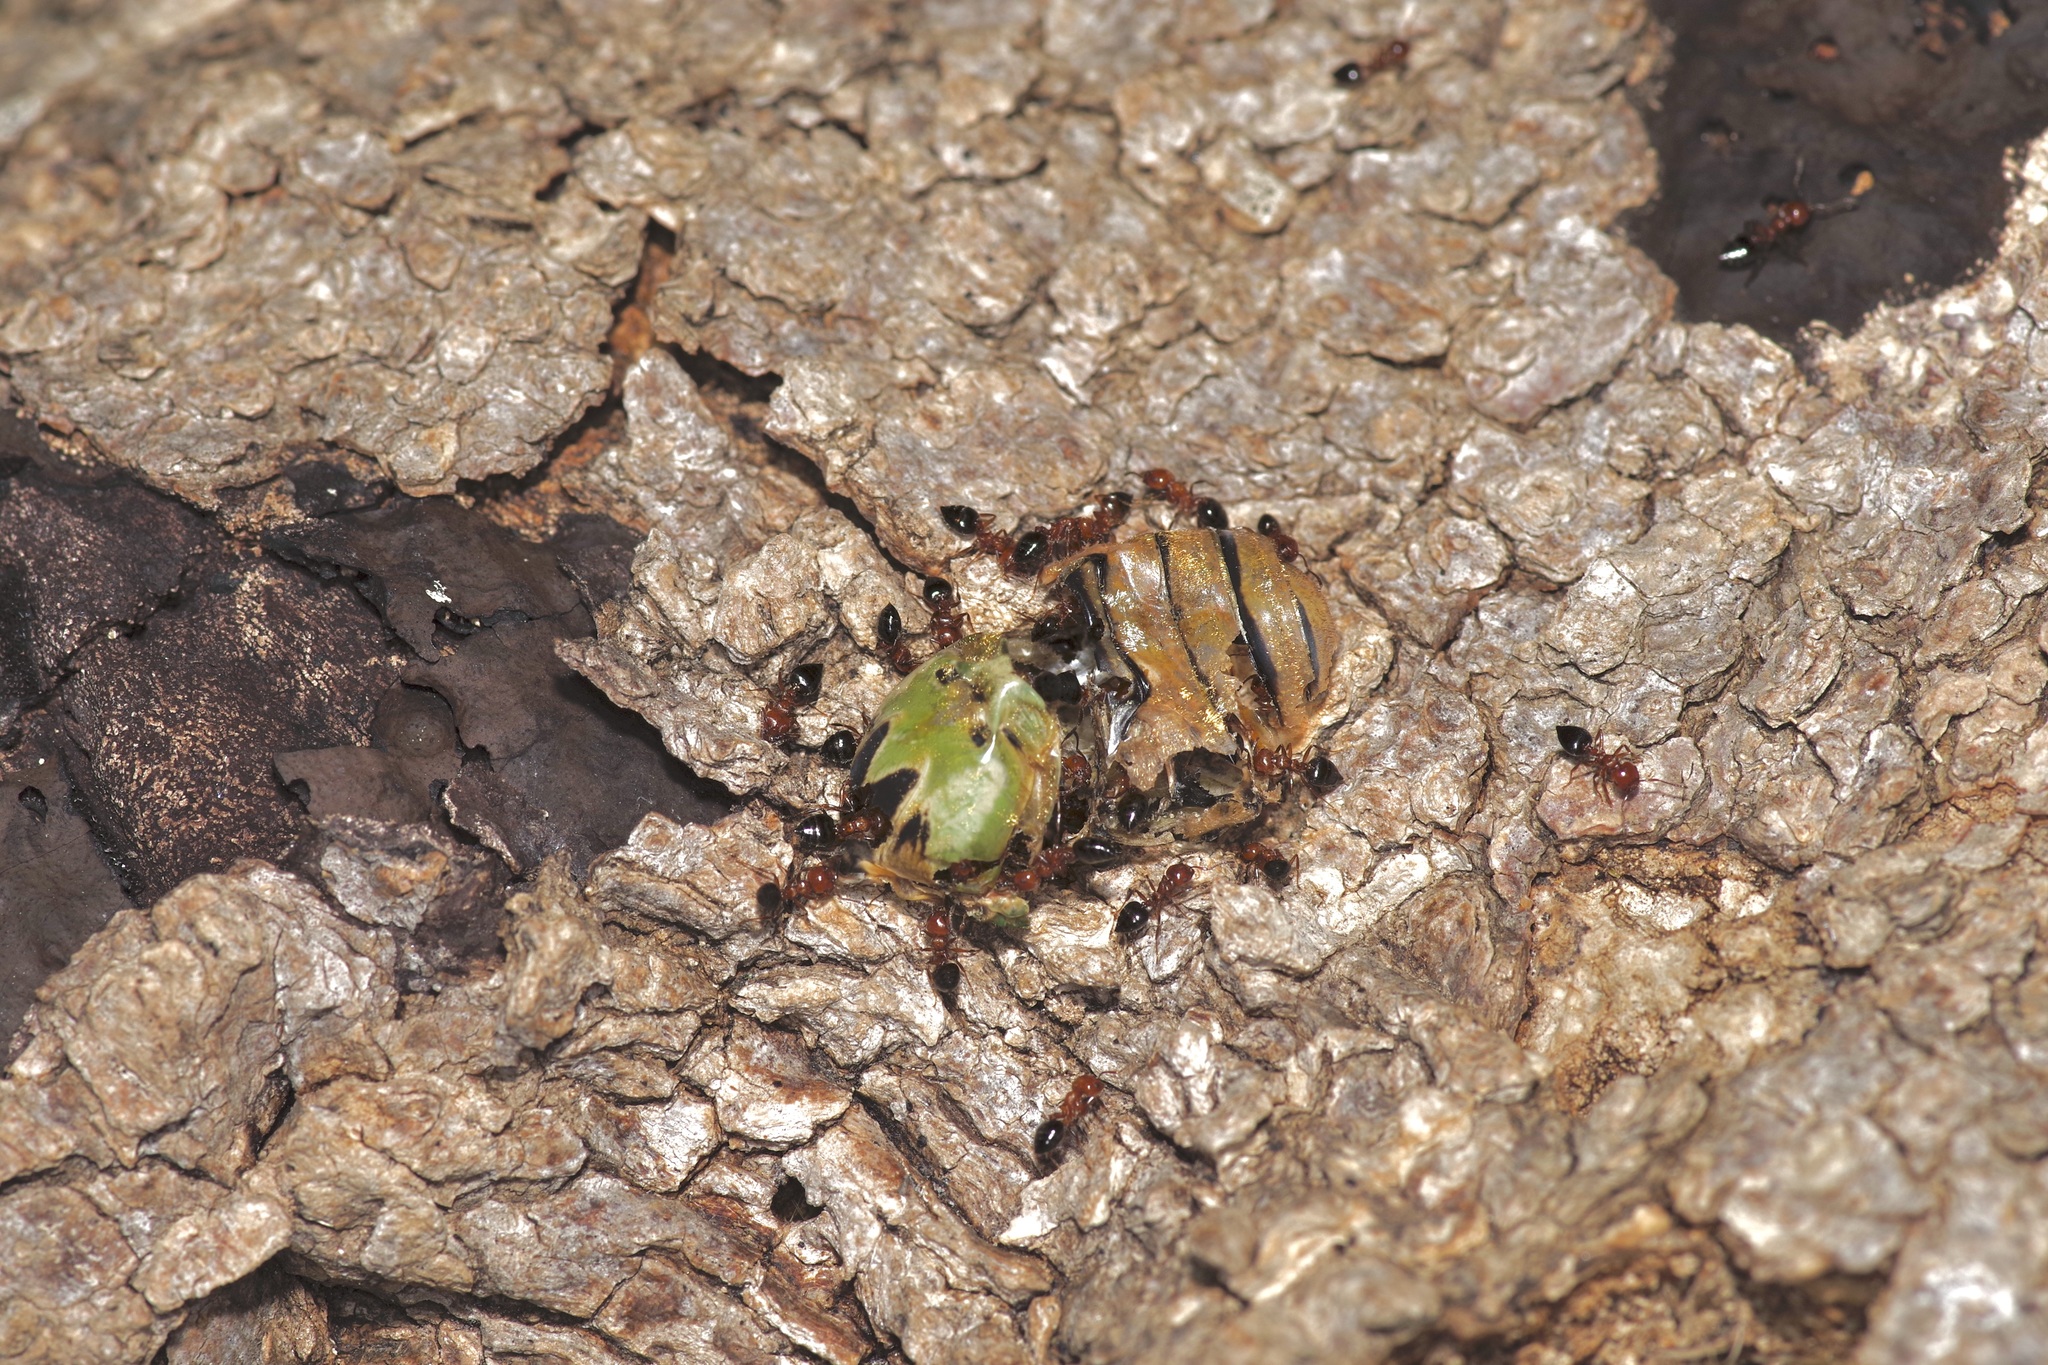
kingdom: Animalia
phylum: Arthropoda
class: Insecta
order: Hymenoptera
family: Formicidae
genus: Crematogaster
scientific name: Crematogaster laeviuscula
